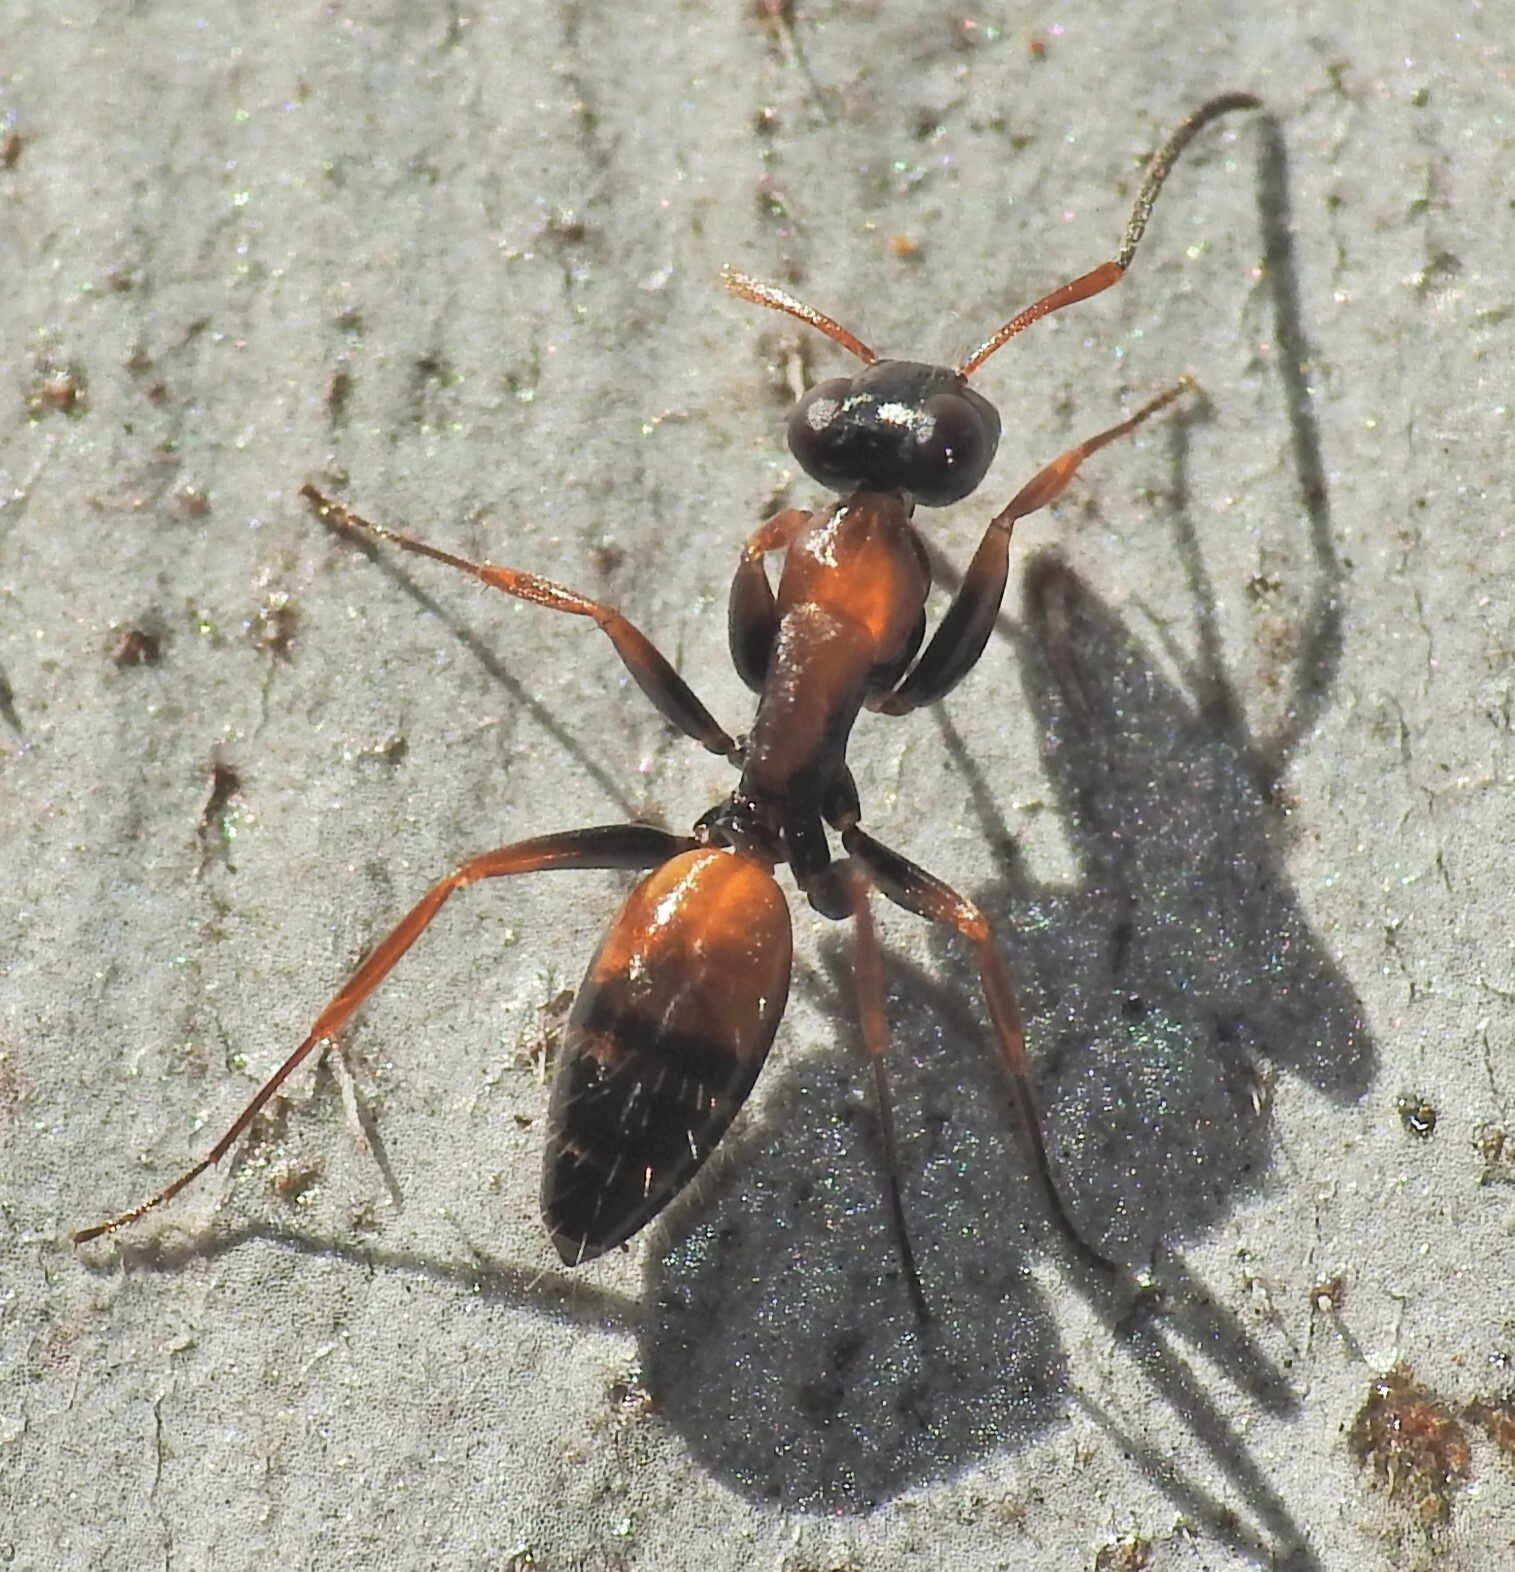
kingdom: Animalia
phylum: Arthropoda
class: Insecta
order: Hymenoptera
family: Formicidae
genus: Opisthopsis
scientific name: Opisthopsis pictus
